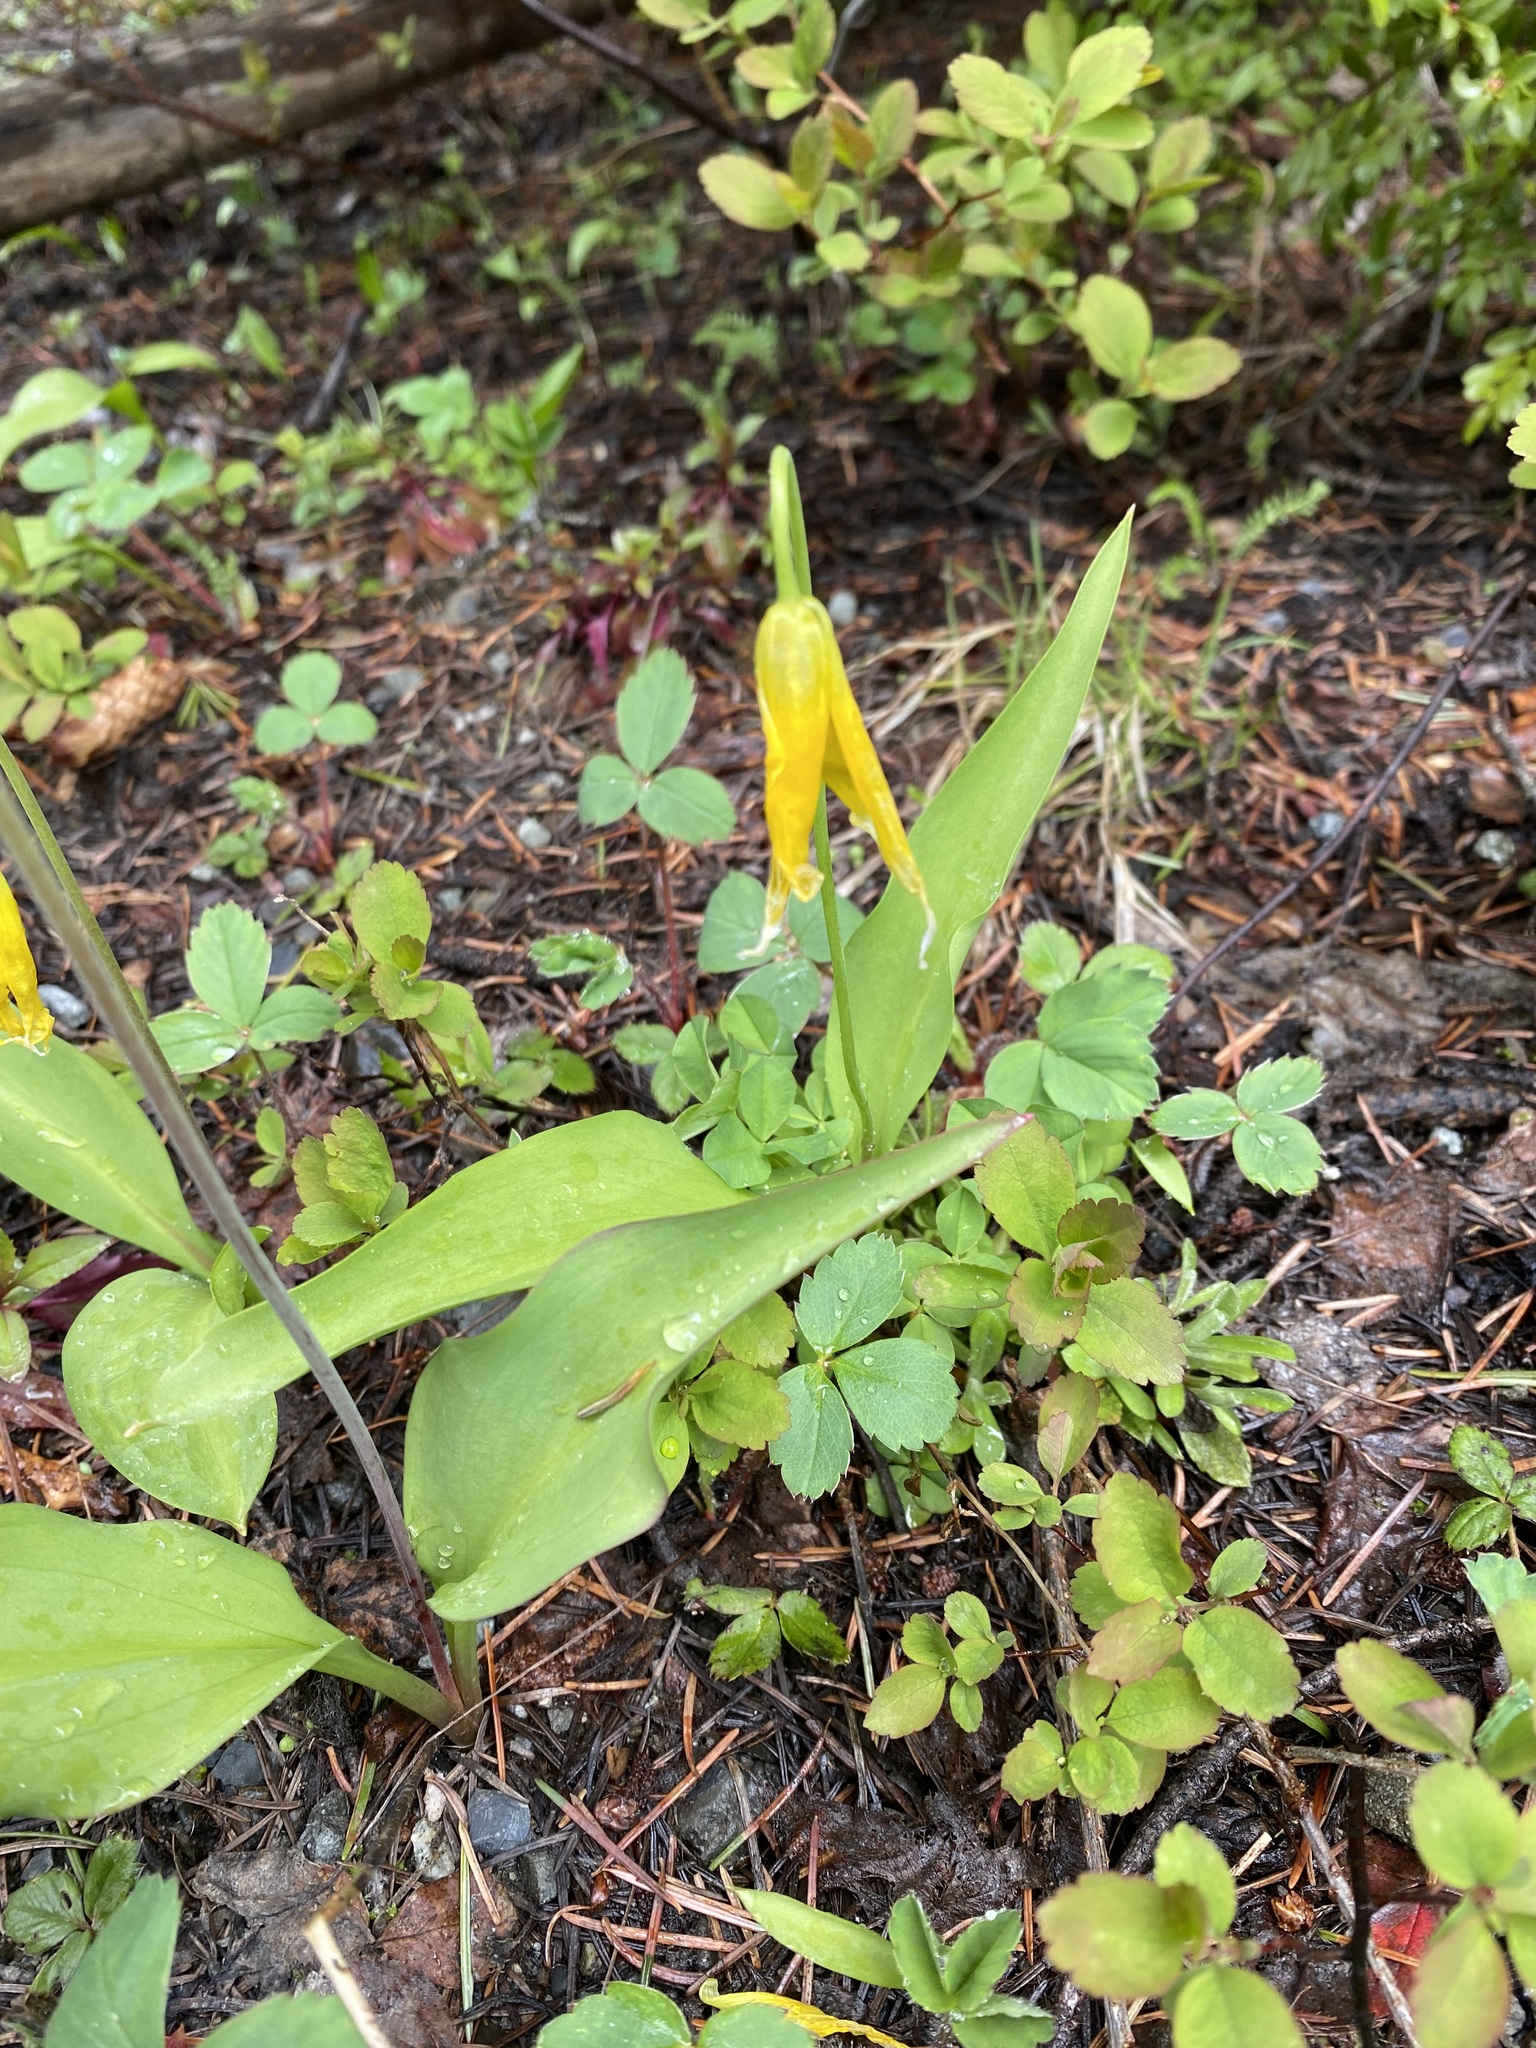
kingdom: Plantae
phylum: Tracheophyta
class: Liliopsida
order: Liliales
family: Liliaceae
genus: Erythronium
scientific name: Erythronium grandiflorum
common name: Avalanche-lily
